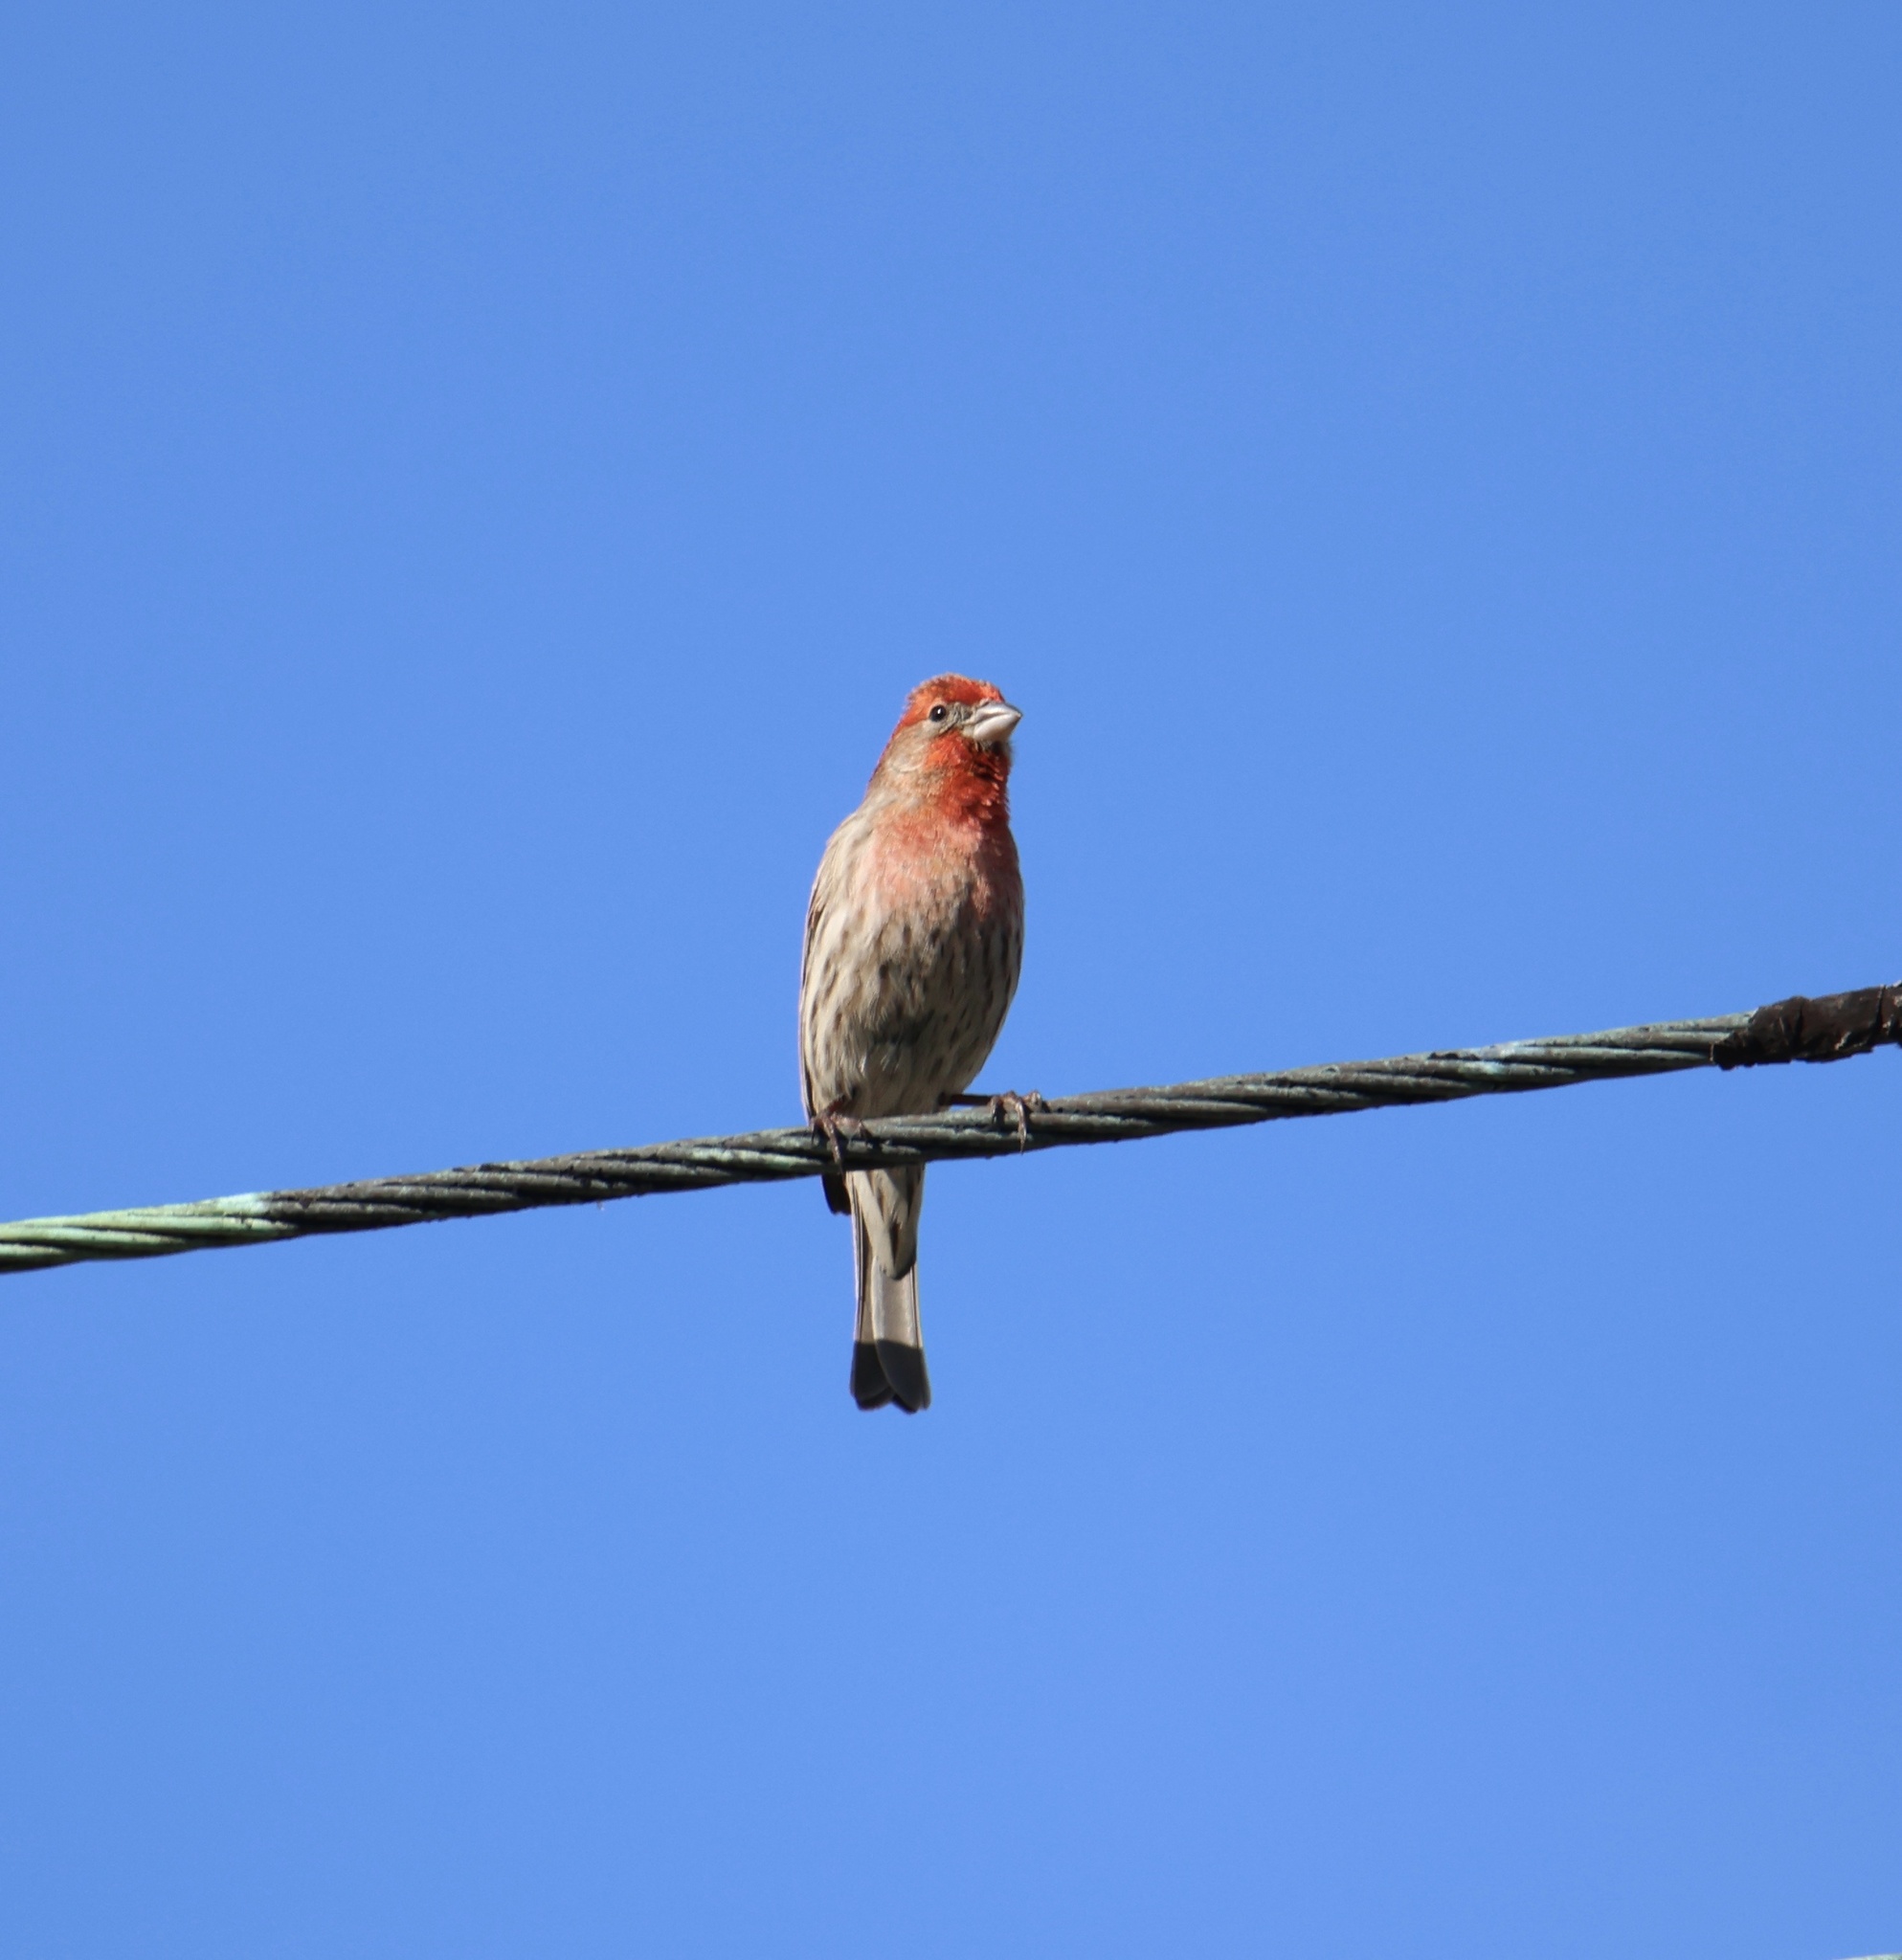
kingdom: Animalia
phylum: Chordata
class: Aves
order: Passeriformes
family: Fringillidae
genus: Haemorhous
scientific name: Haemorhous mexicanus
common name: House finch
